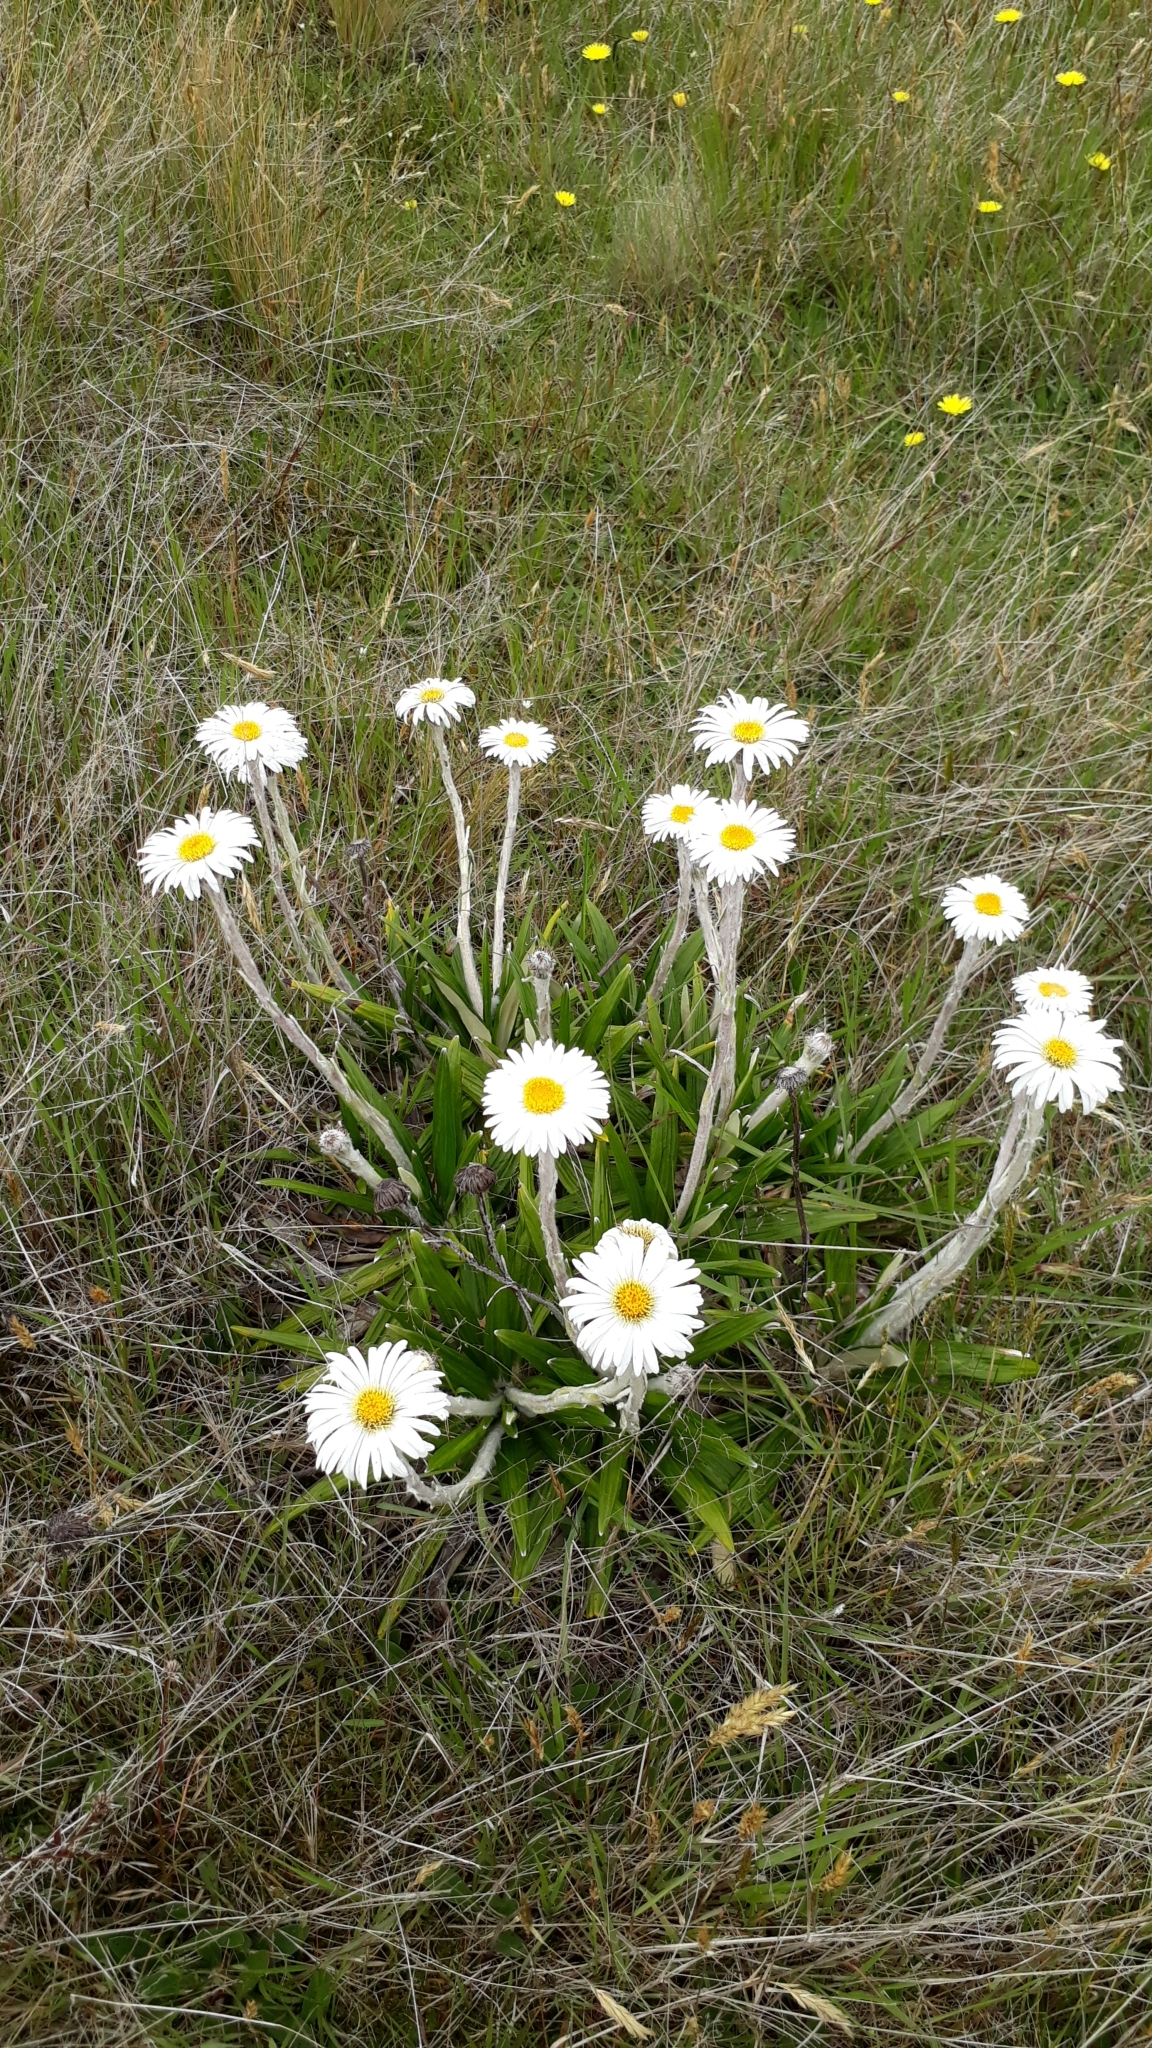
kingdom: Plantae
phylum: Tracheophyta
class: Magnoliopsida
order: Asterales
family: Asteraceae
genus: Celmisia
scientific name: Celmisia spectabilis
